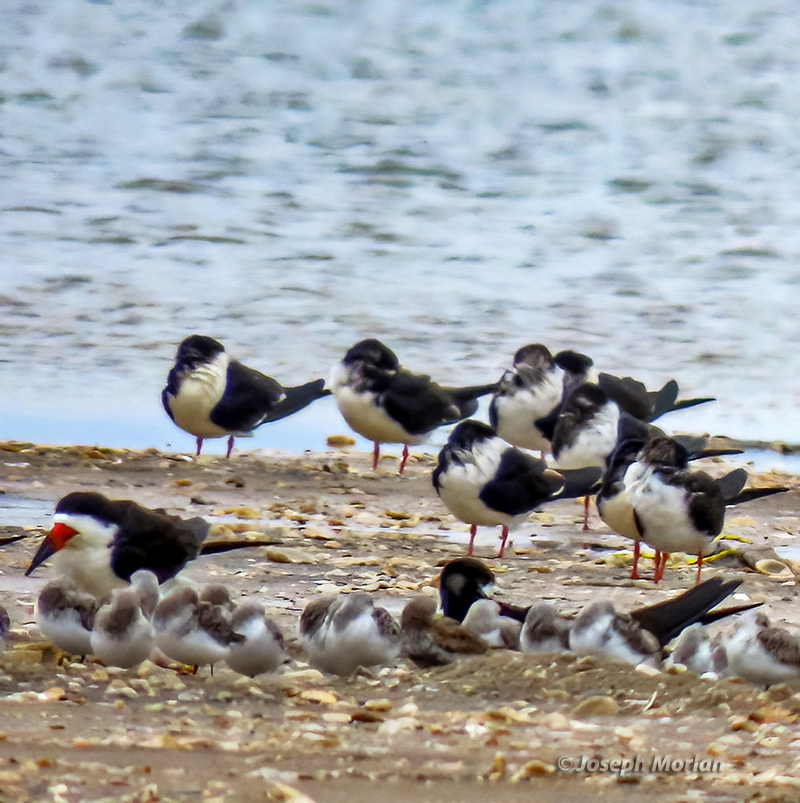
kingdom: Animalia
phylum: Chordata
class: Aves
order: Charadriiformes
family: Laridae
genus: Rynchops
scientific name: Rynchops niger
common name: Black skimmer
